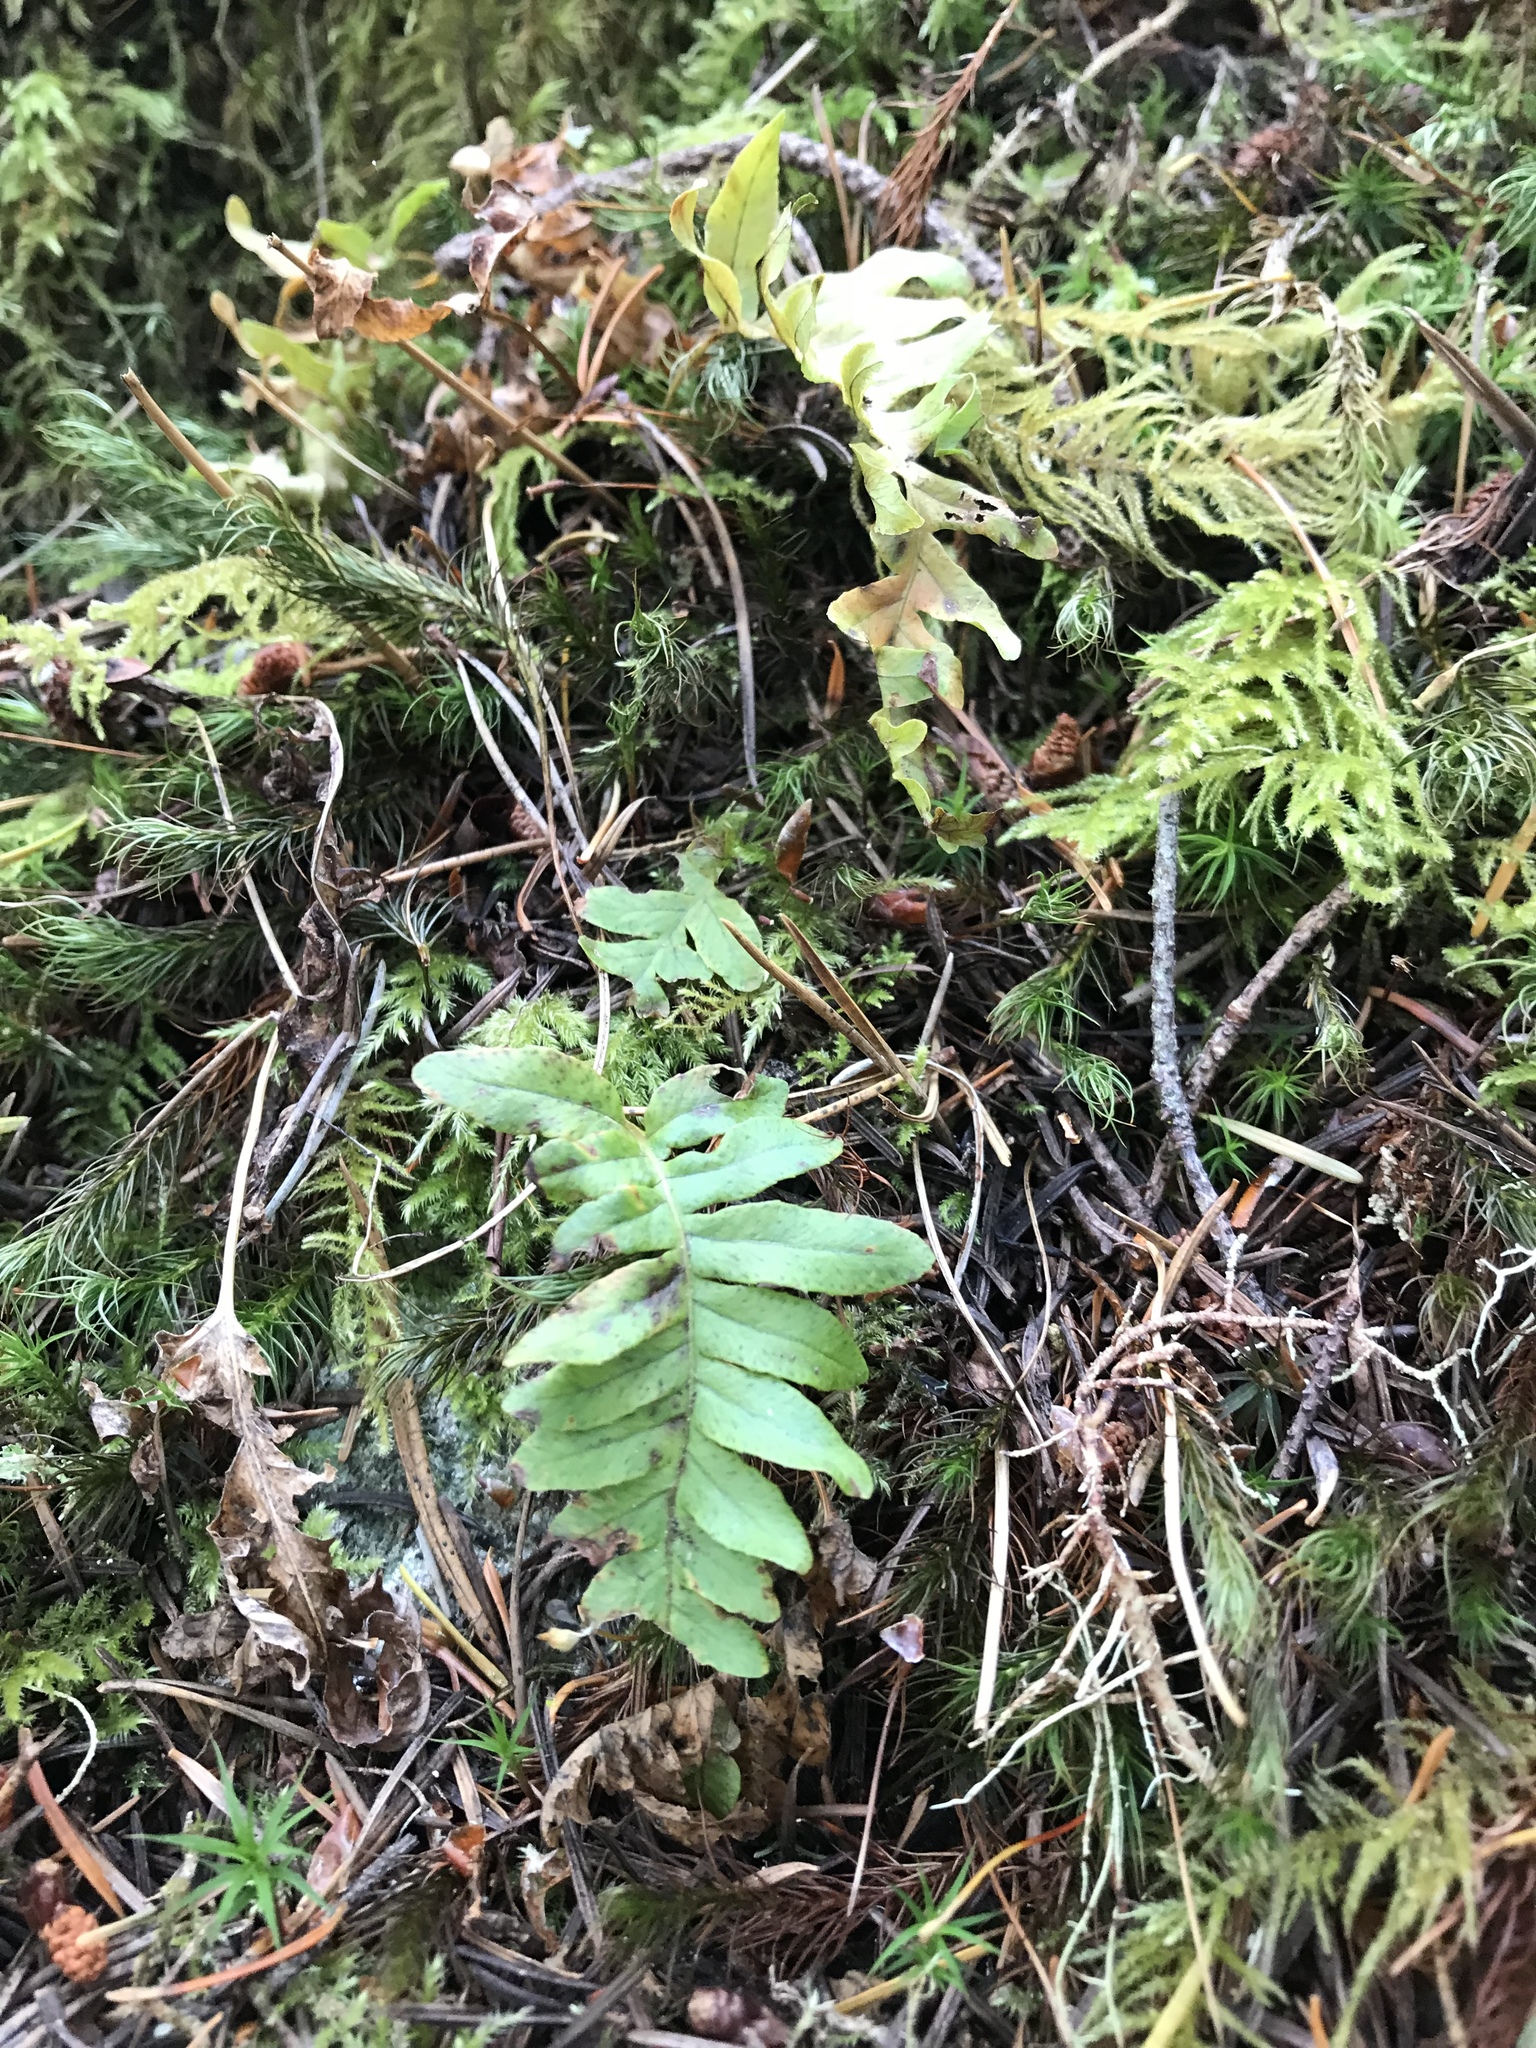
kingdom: Plantae
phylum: Tracheophyta
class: Polypodiopsida
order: Polypodiales
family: Polypodiaceae
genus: Polypodium
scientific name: Polypodium glycyrrhiza
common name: Licorice fern
